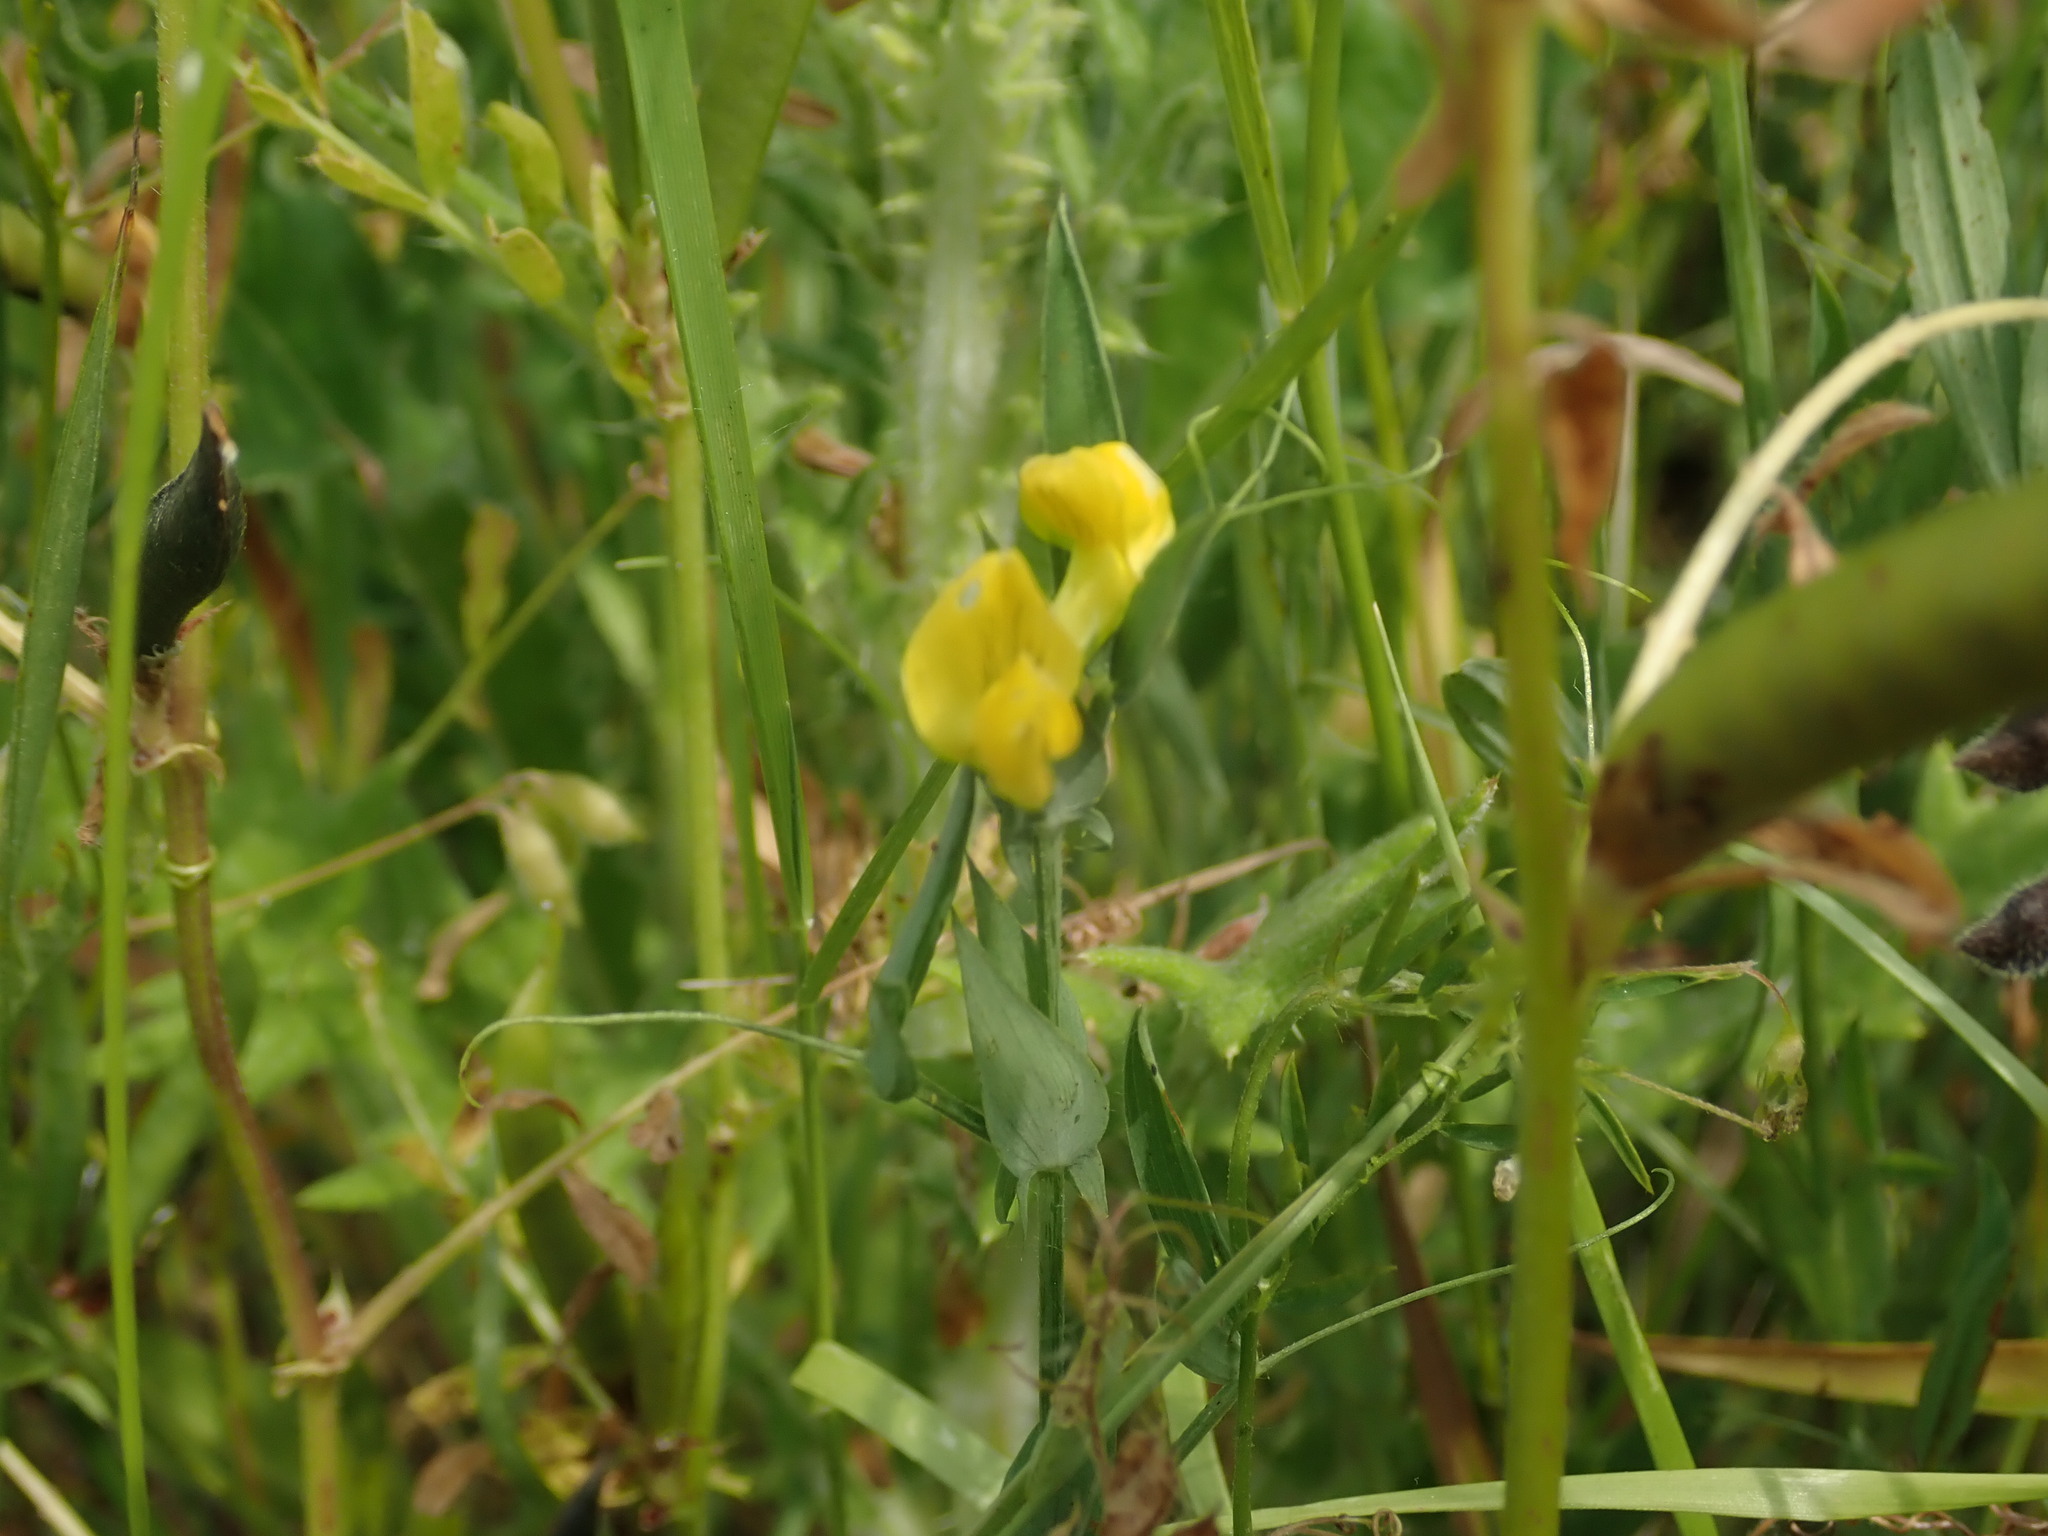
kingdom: Plantae
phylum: Tracheophyta
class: Magnoliopsida
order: Fabales
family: Fabaceae
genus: Lathyrus
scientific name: Lathyrus pratensis
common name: Meadow vetchling
